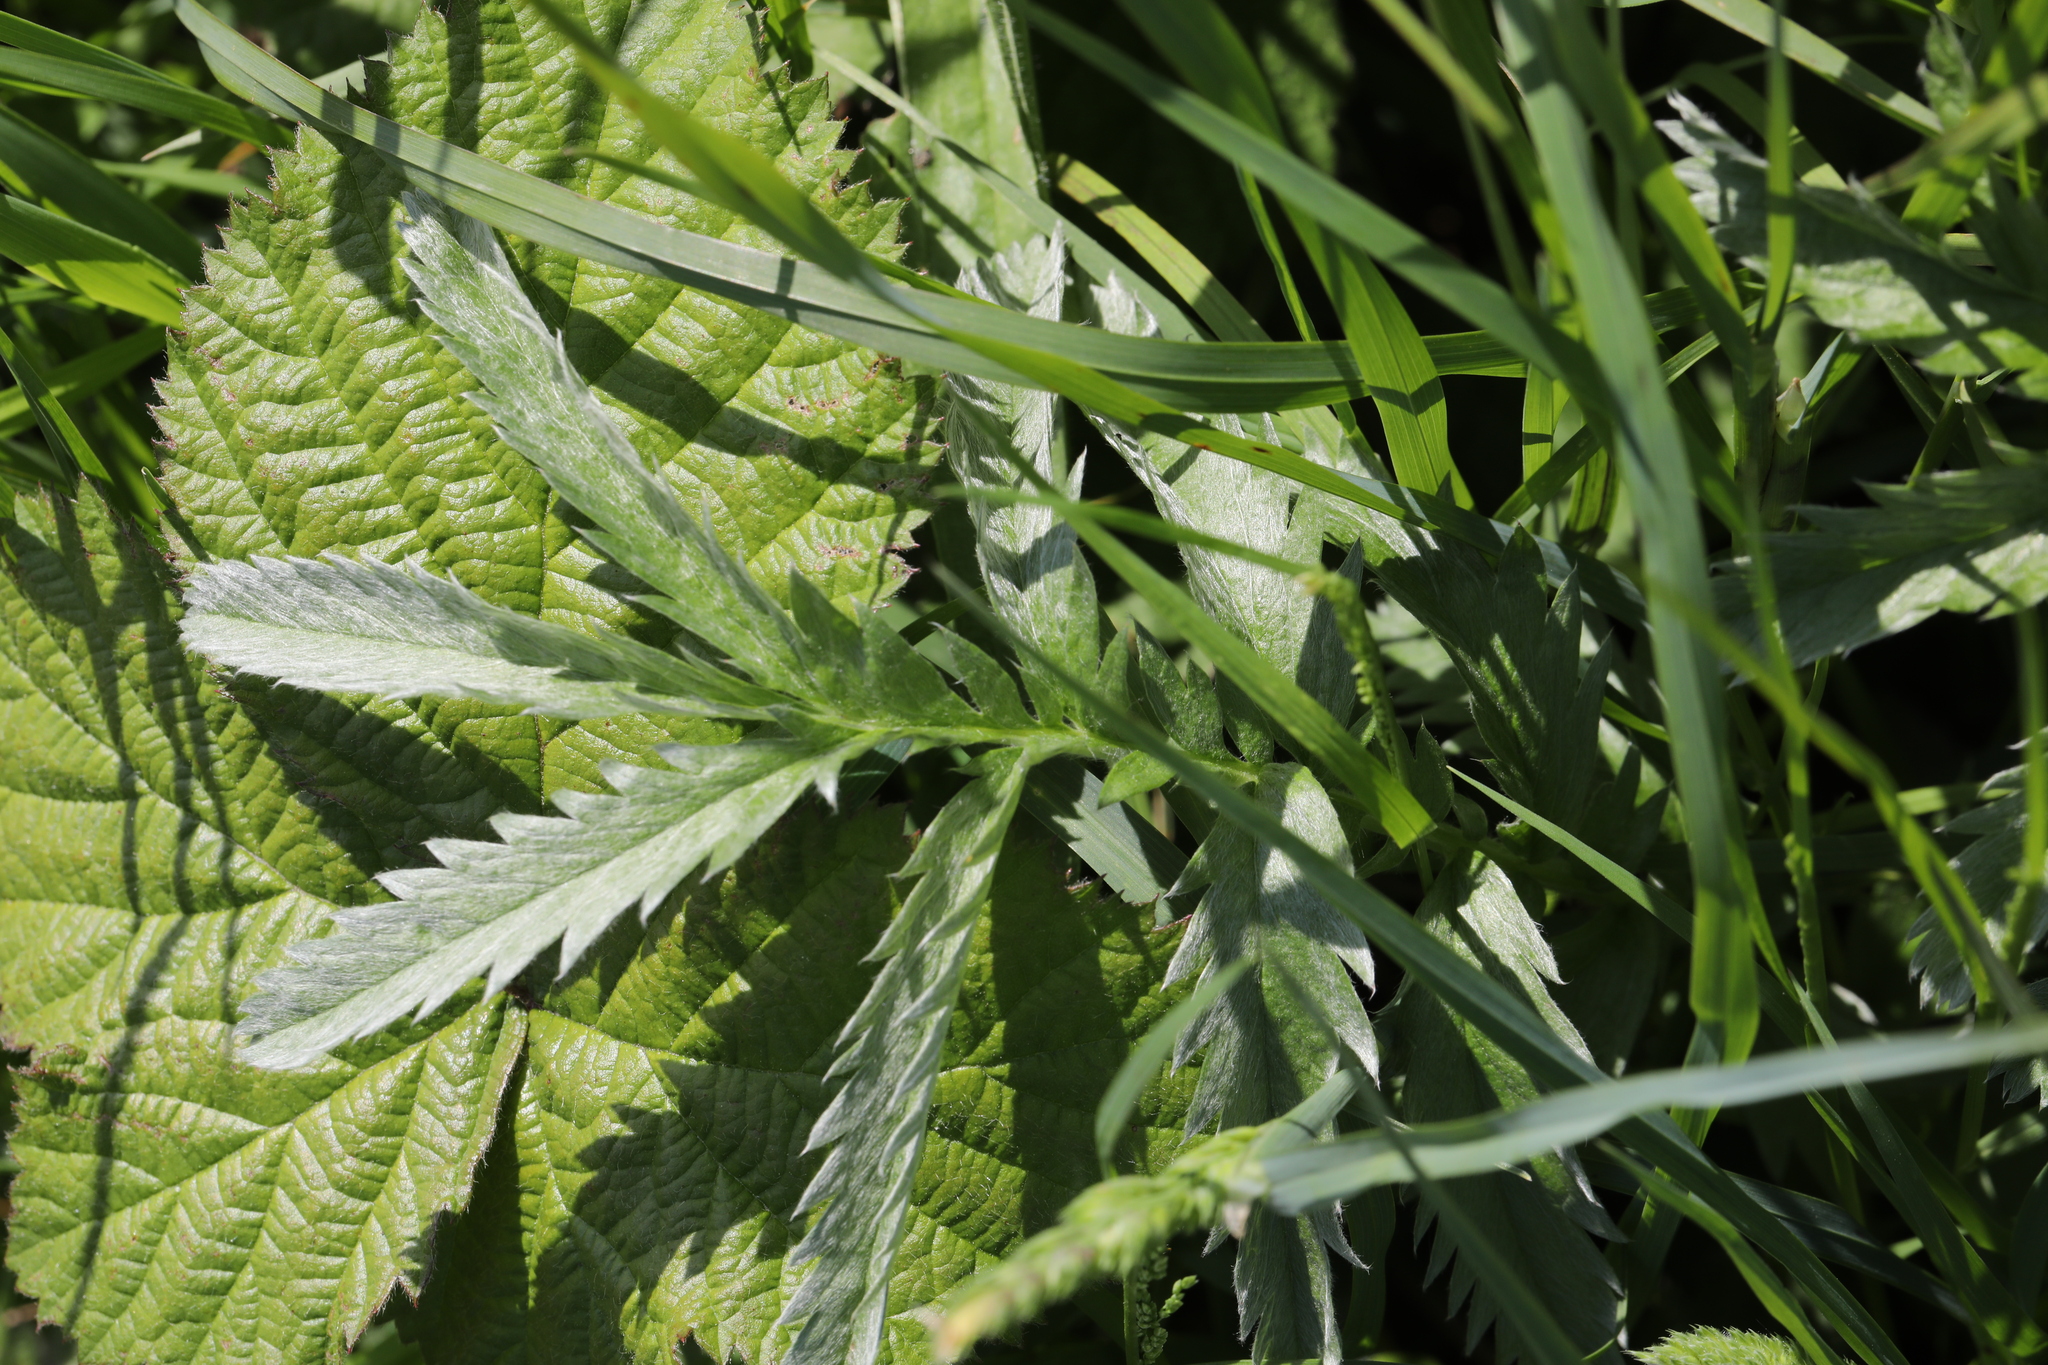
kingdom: Plantae
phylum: Tracheophyta
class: Magnoliopsida
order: Rosales
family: Rosaceae
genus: Argentina
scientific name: Argentina anserina
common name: Common silverweed
